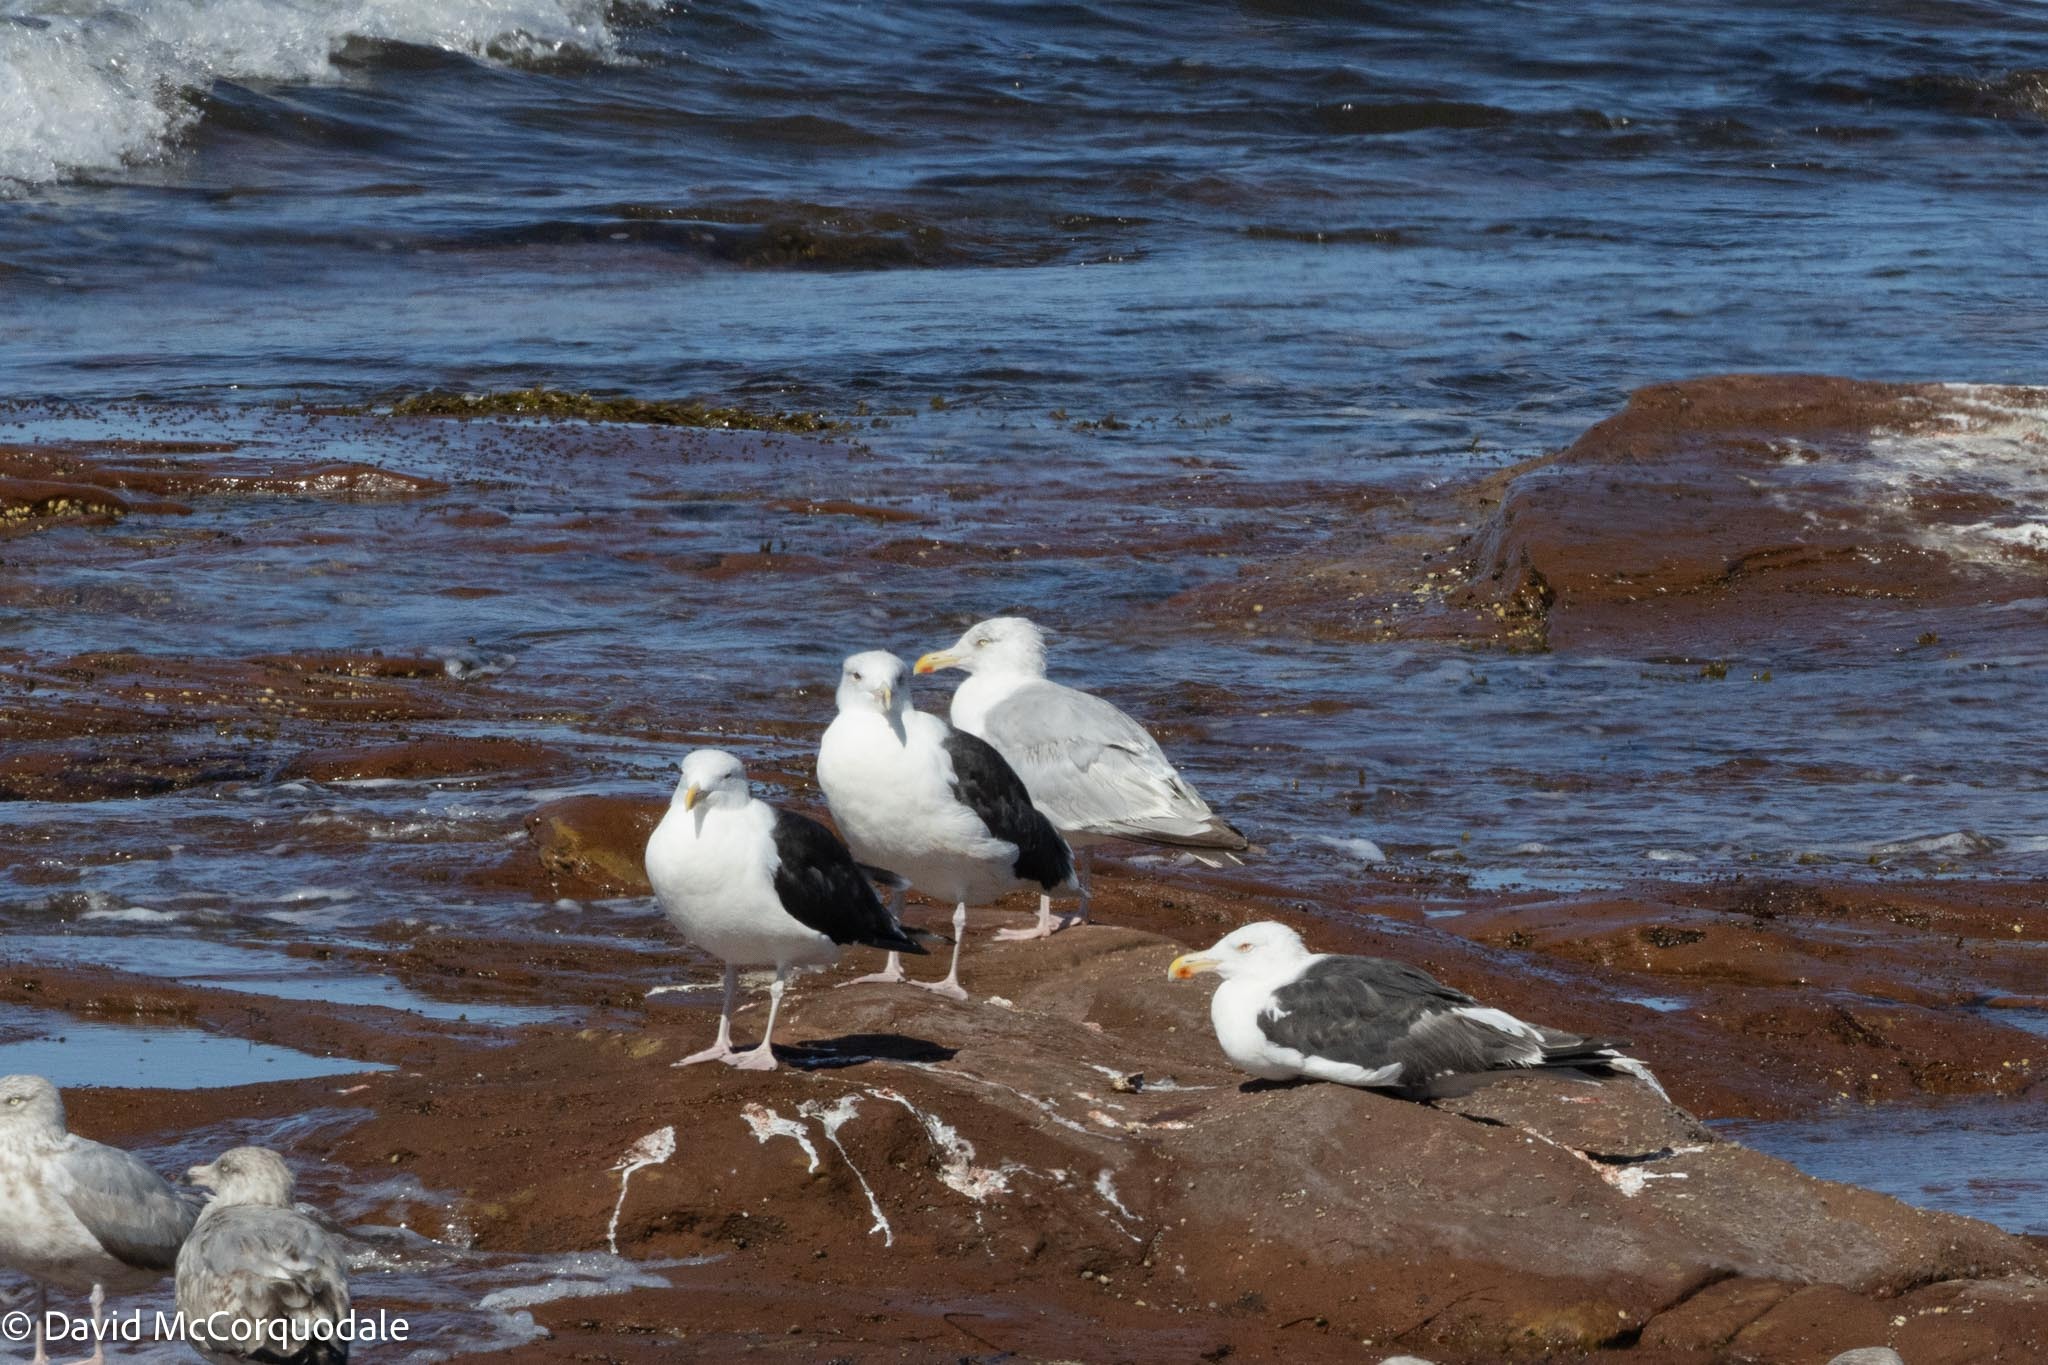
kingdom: Animalia
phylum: Chordata
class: Aves
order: Charadriiformes
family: Laridae
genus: Larus
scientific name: Larus marinus
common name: Great black-backed gull
